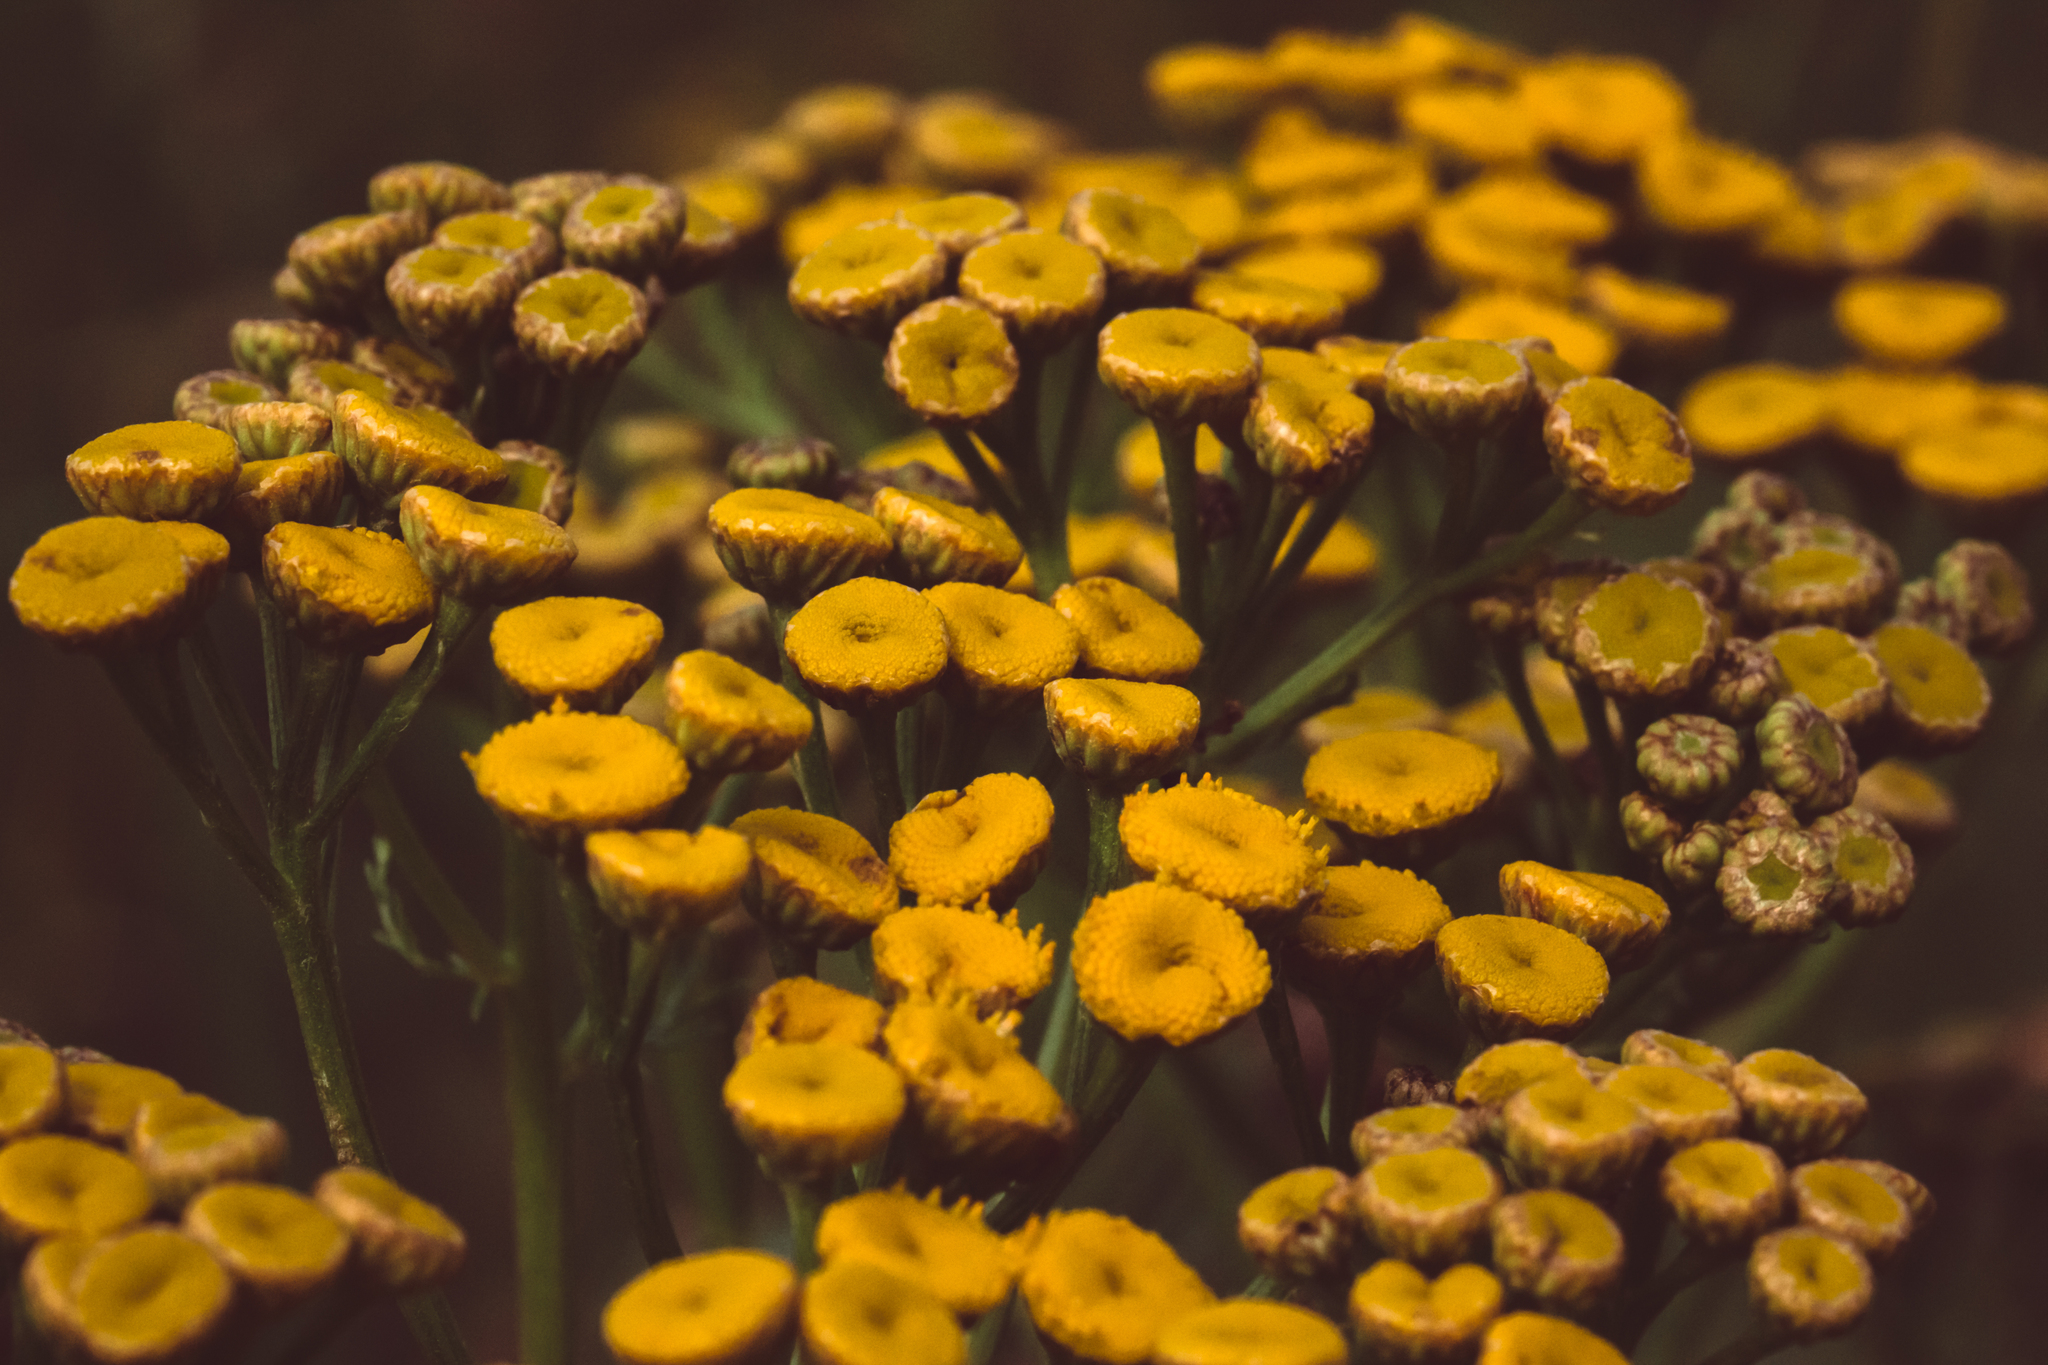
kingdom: Plantae
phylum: Tracheophyta
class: Magnoliopsida
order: Asterales
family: Asteraceae
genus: Tanacetum
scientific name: Tanacetum vulgare
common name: Common tansy
